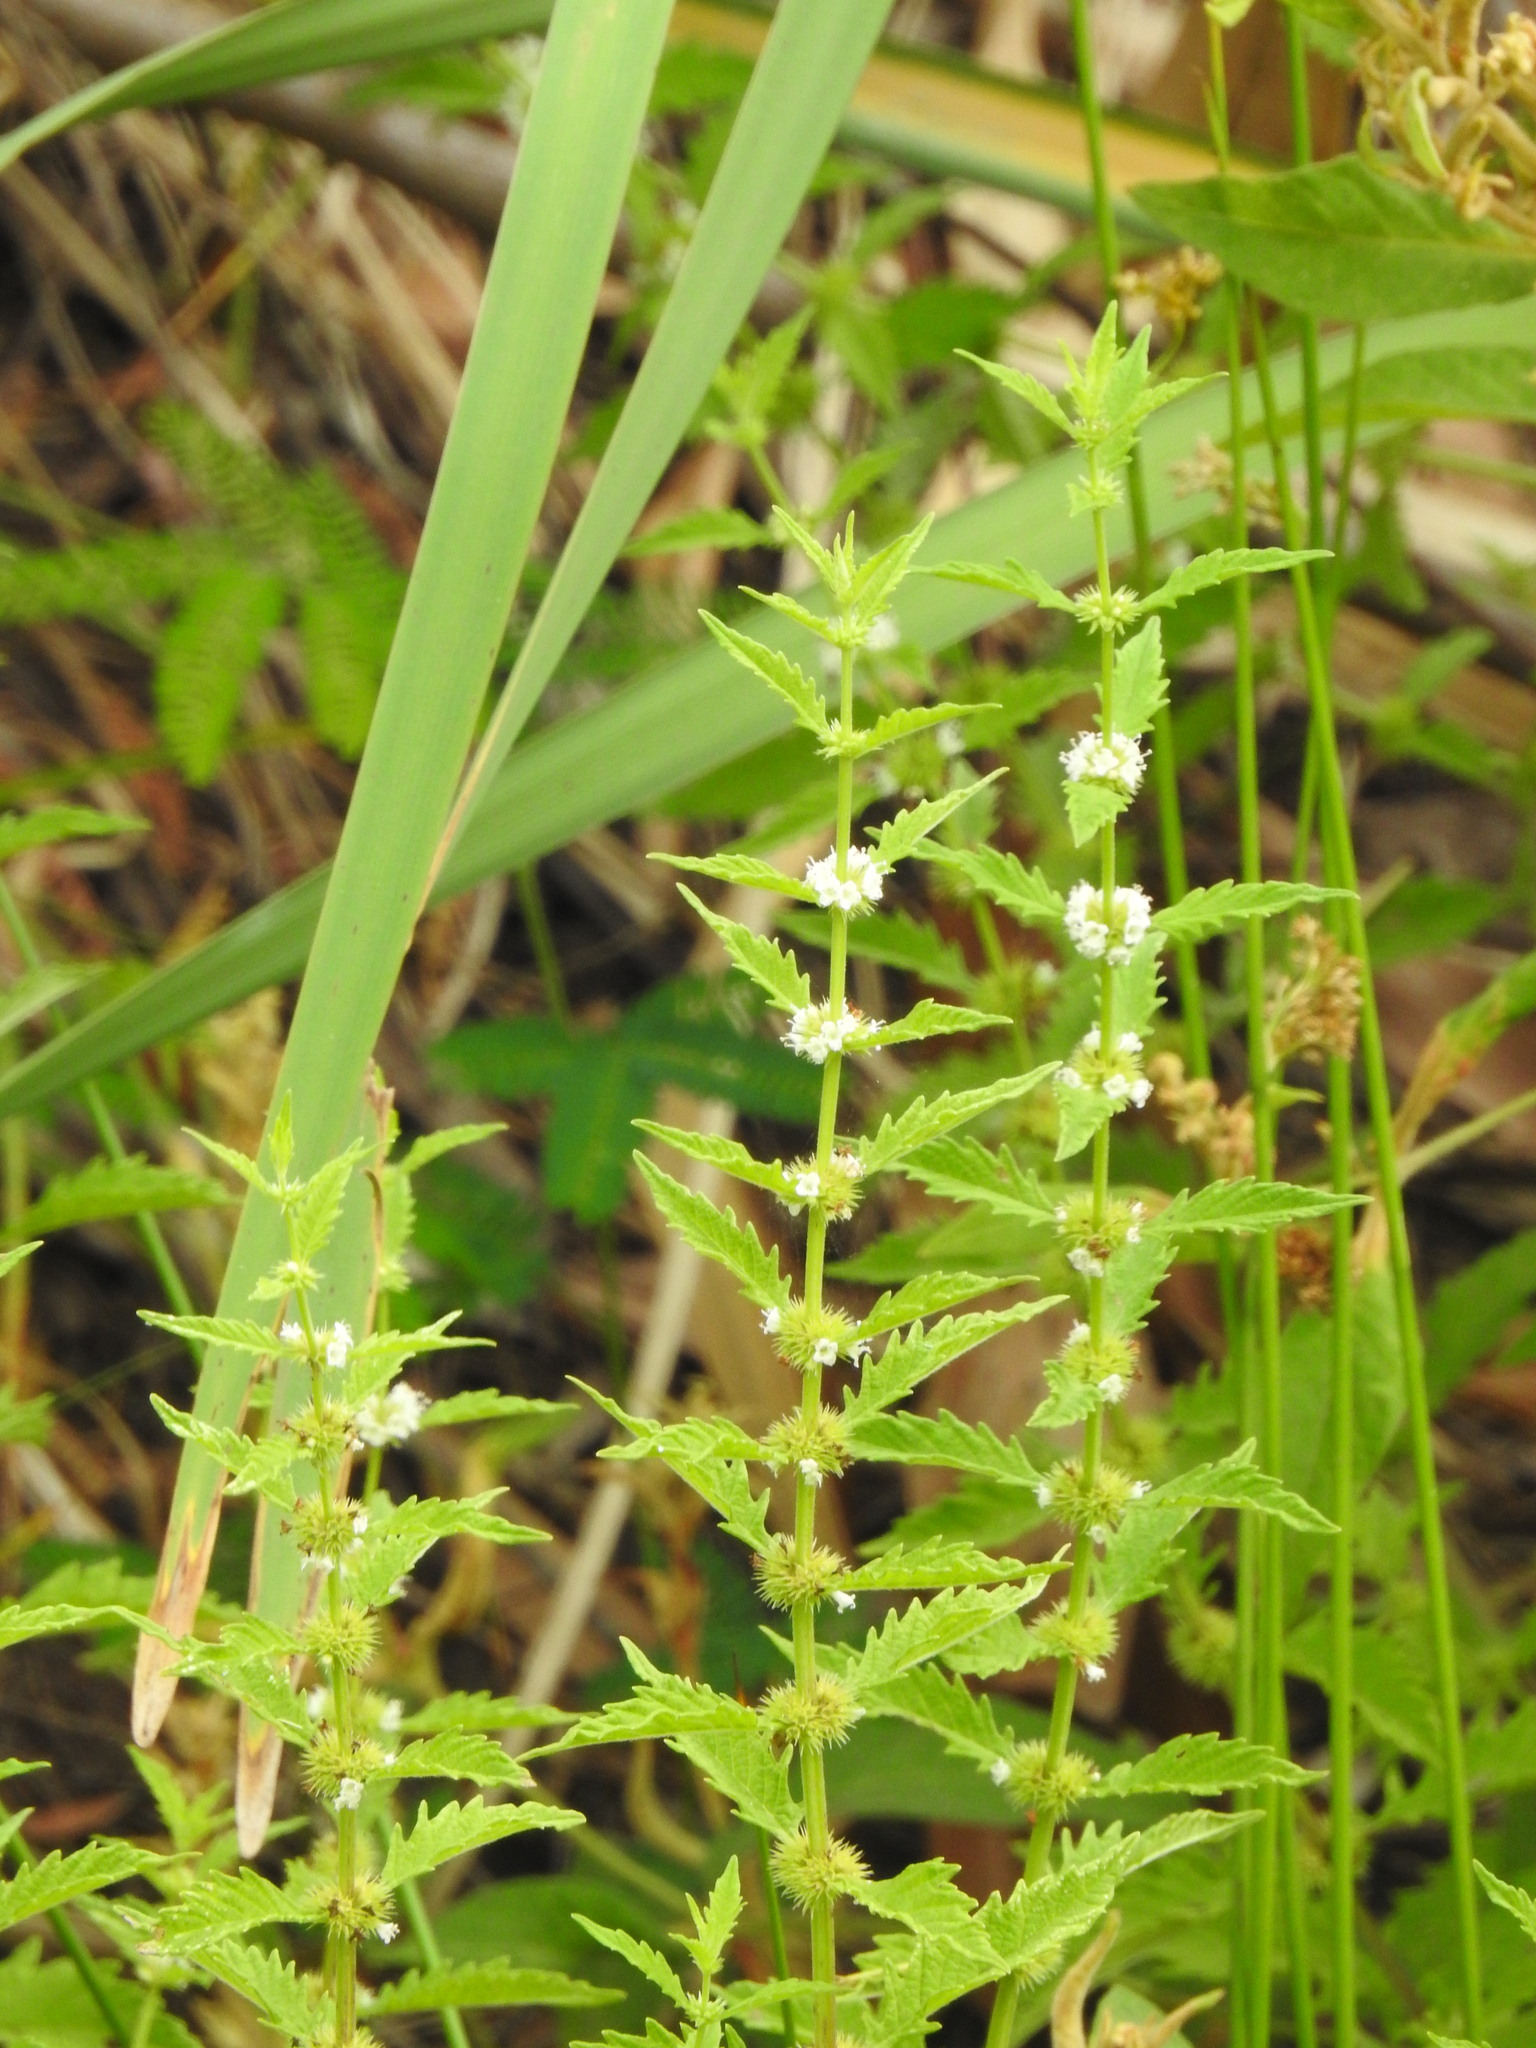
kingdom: Plantae
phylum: Tracheophyta
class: Magnoliopsida
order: Lamiales
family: Lamiaceae
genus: Lycopus
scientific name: Lycopus europaeus
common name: European bugleweed
